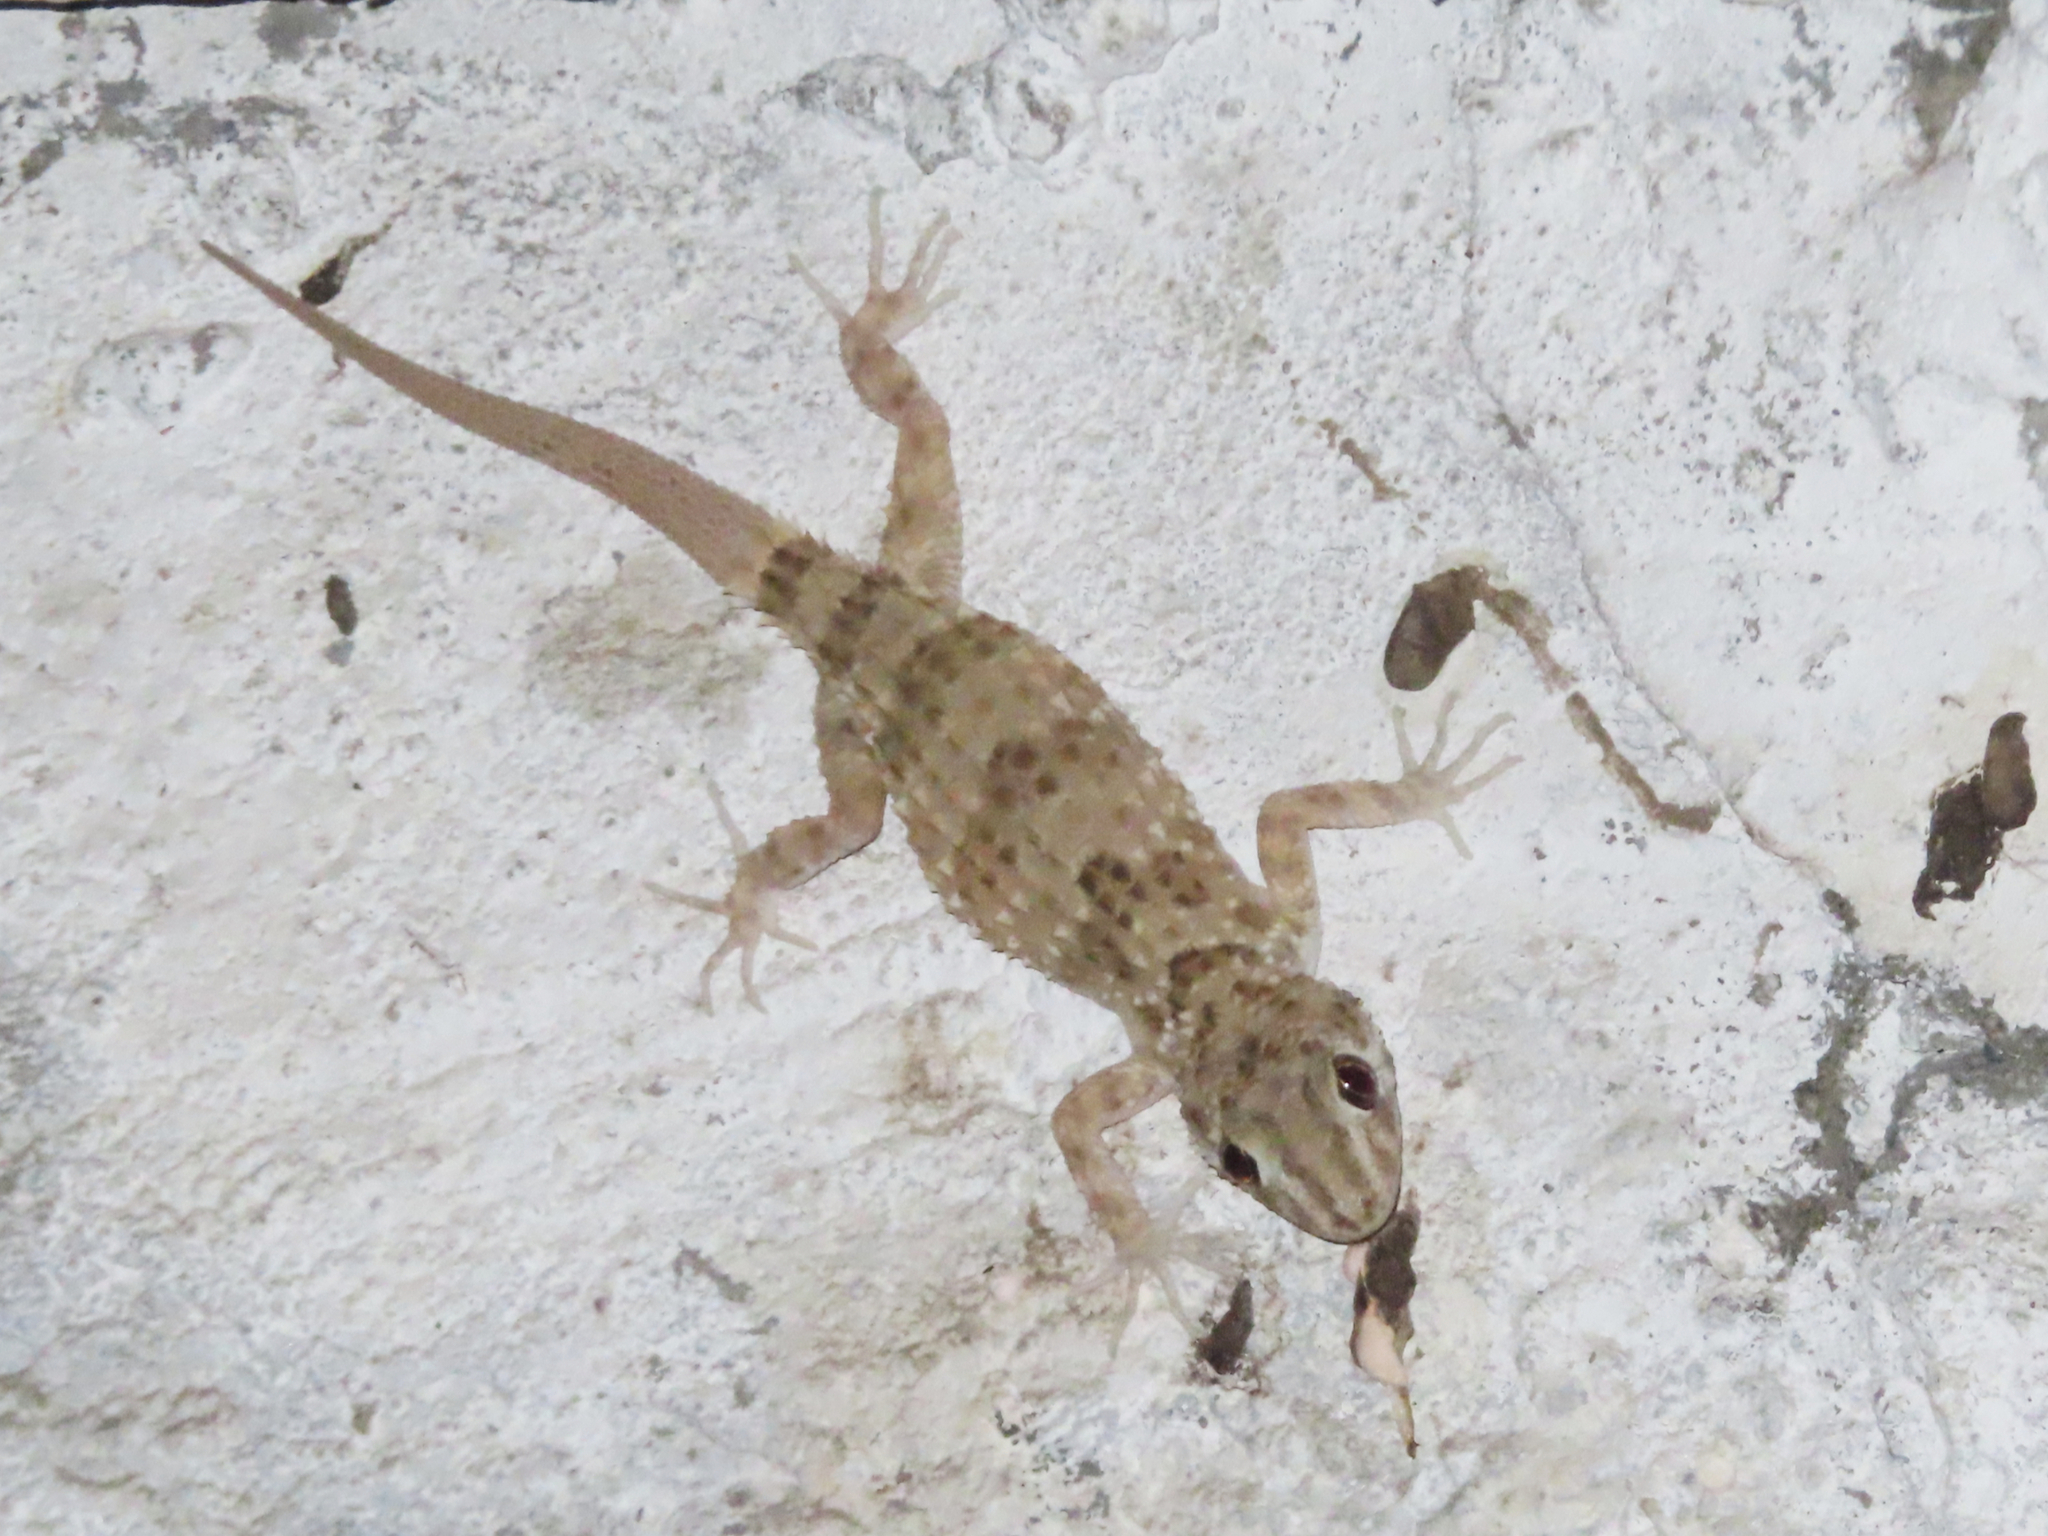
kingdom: Animalia
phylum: Chordata
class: Squamata
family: Gekkonidae
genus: Tenuidactylus
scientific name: Tenuidactylus caspius
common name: Caspian bent-toed gecko
